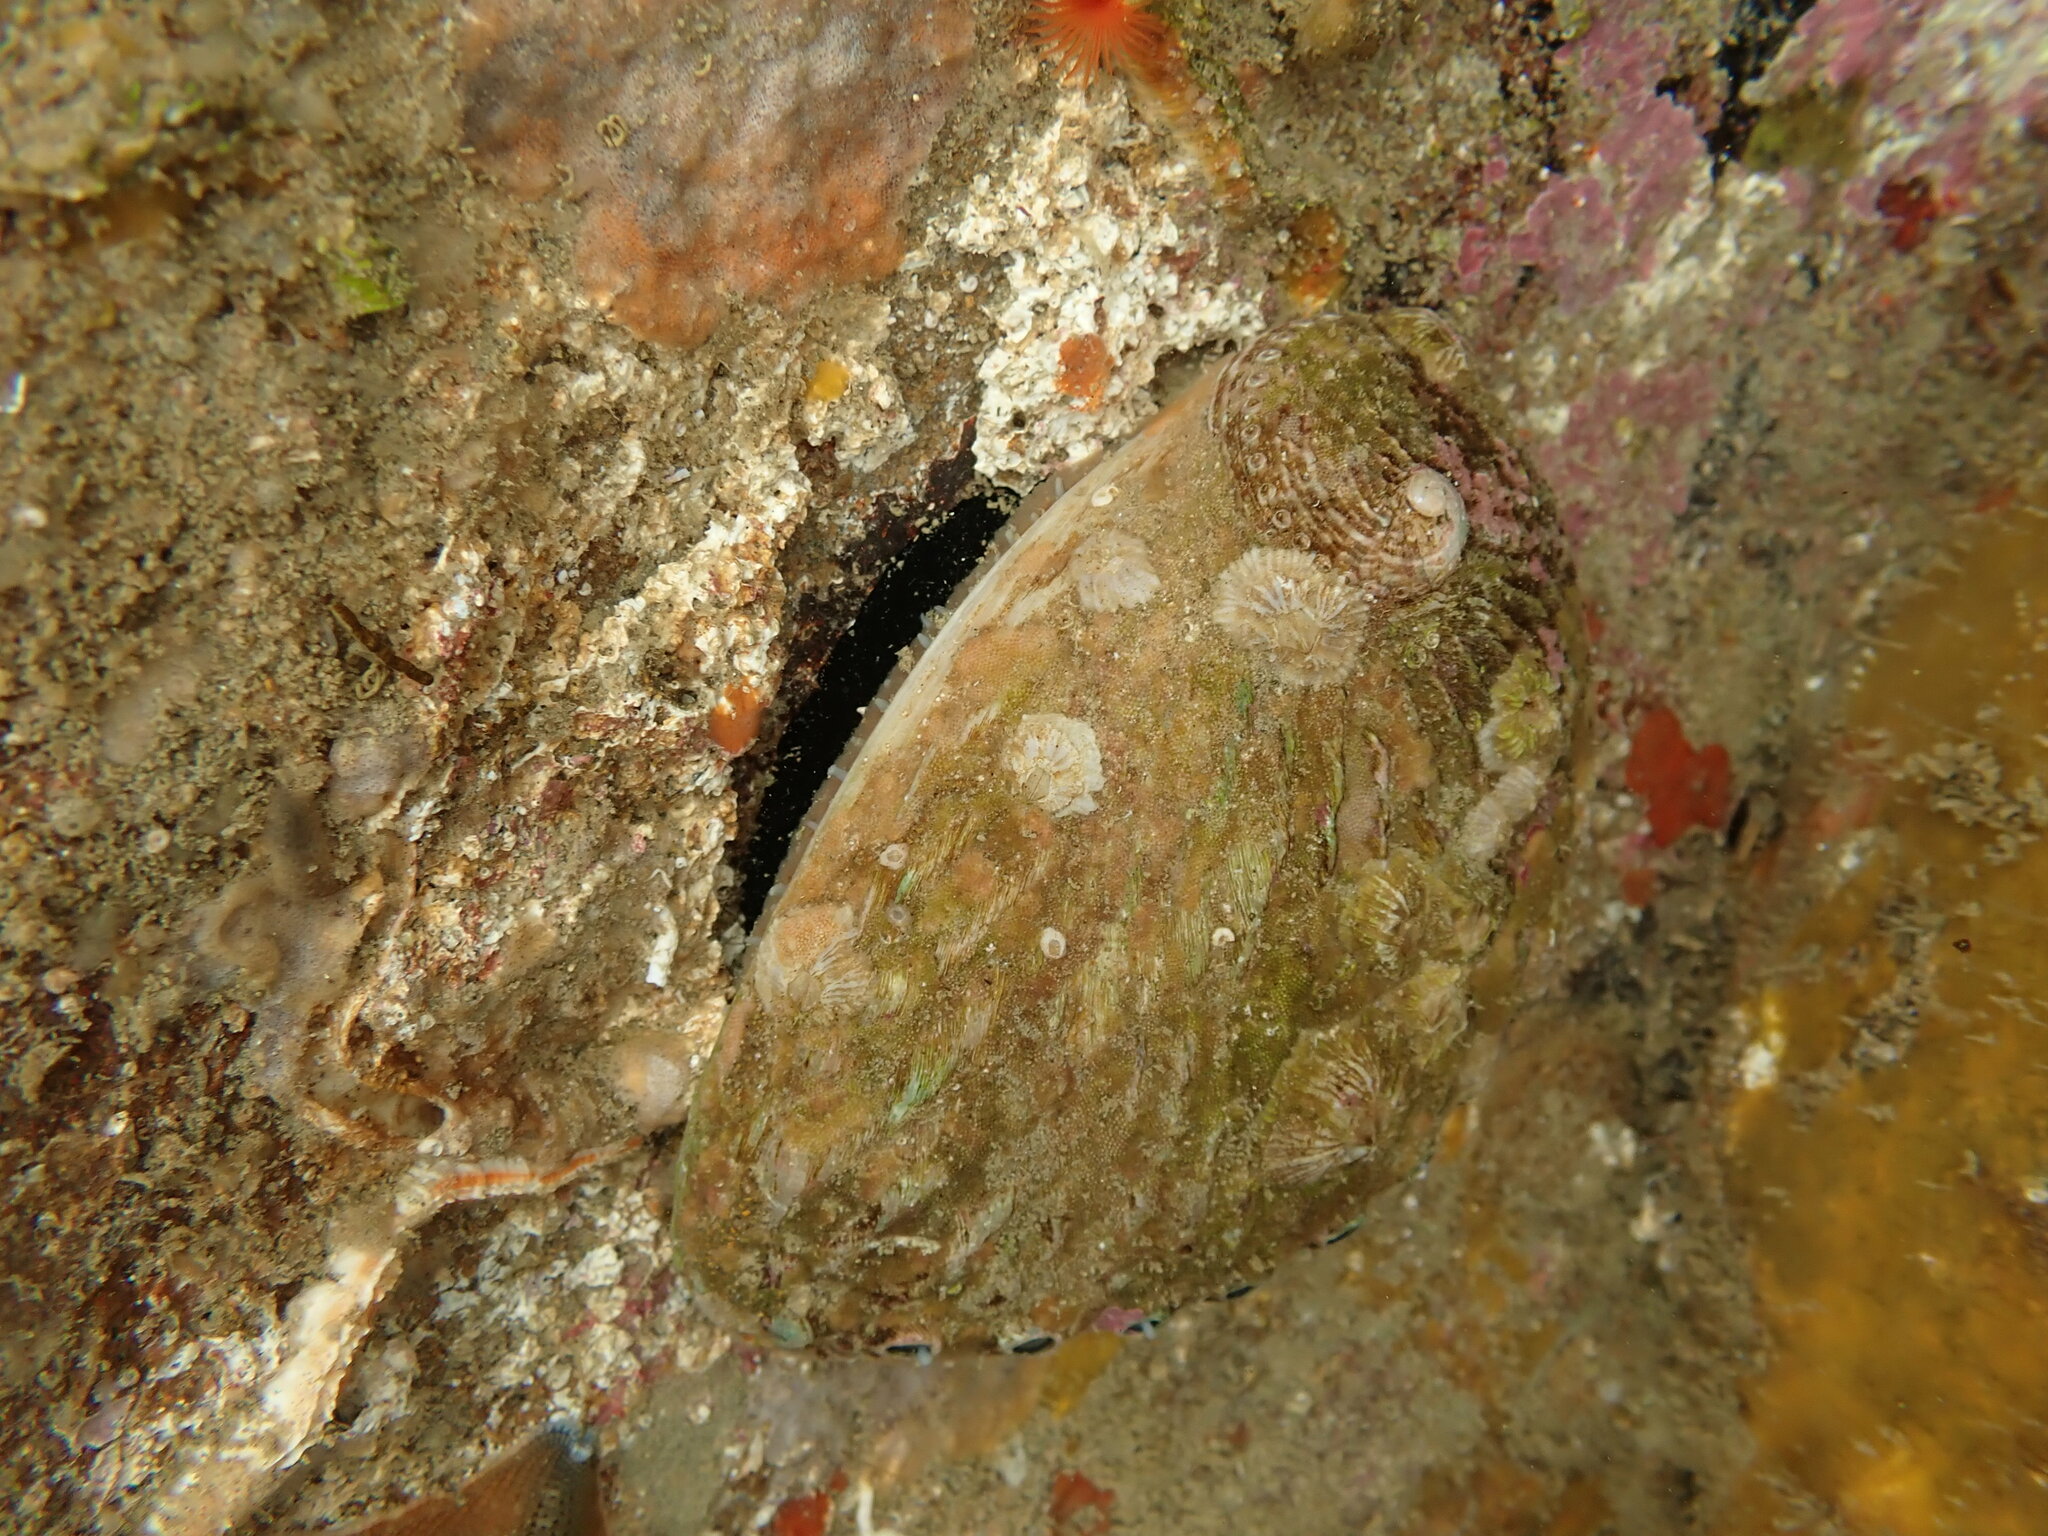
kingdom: Animalia
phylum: Arthropoda
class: Maxillopoda
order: Sessilia
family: Tetraclitidae
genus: Tetraclitella
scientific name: Tetraclitella depressa
